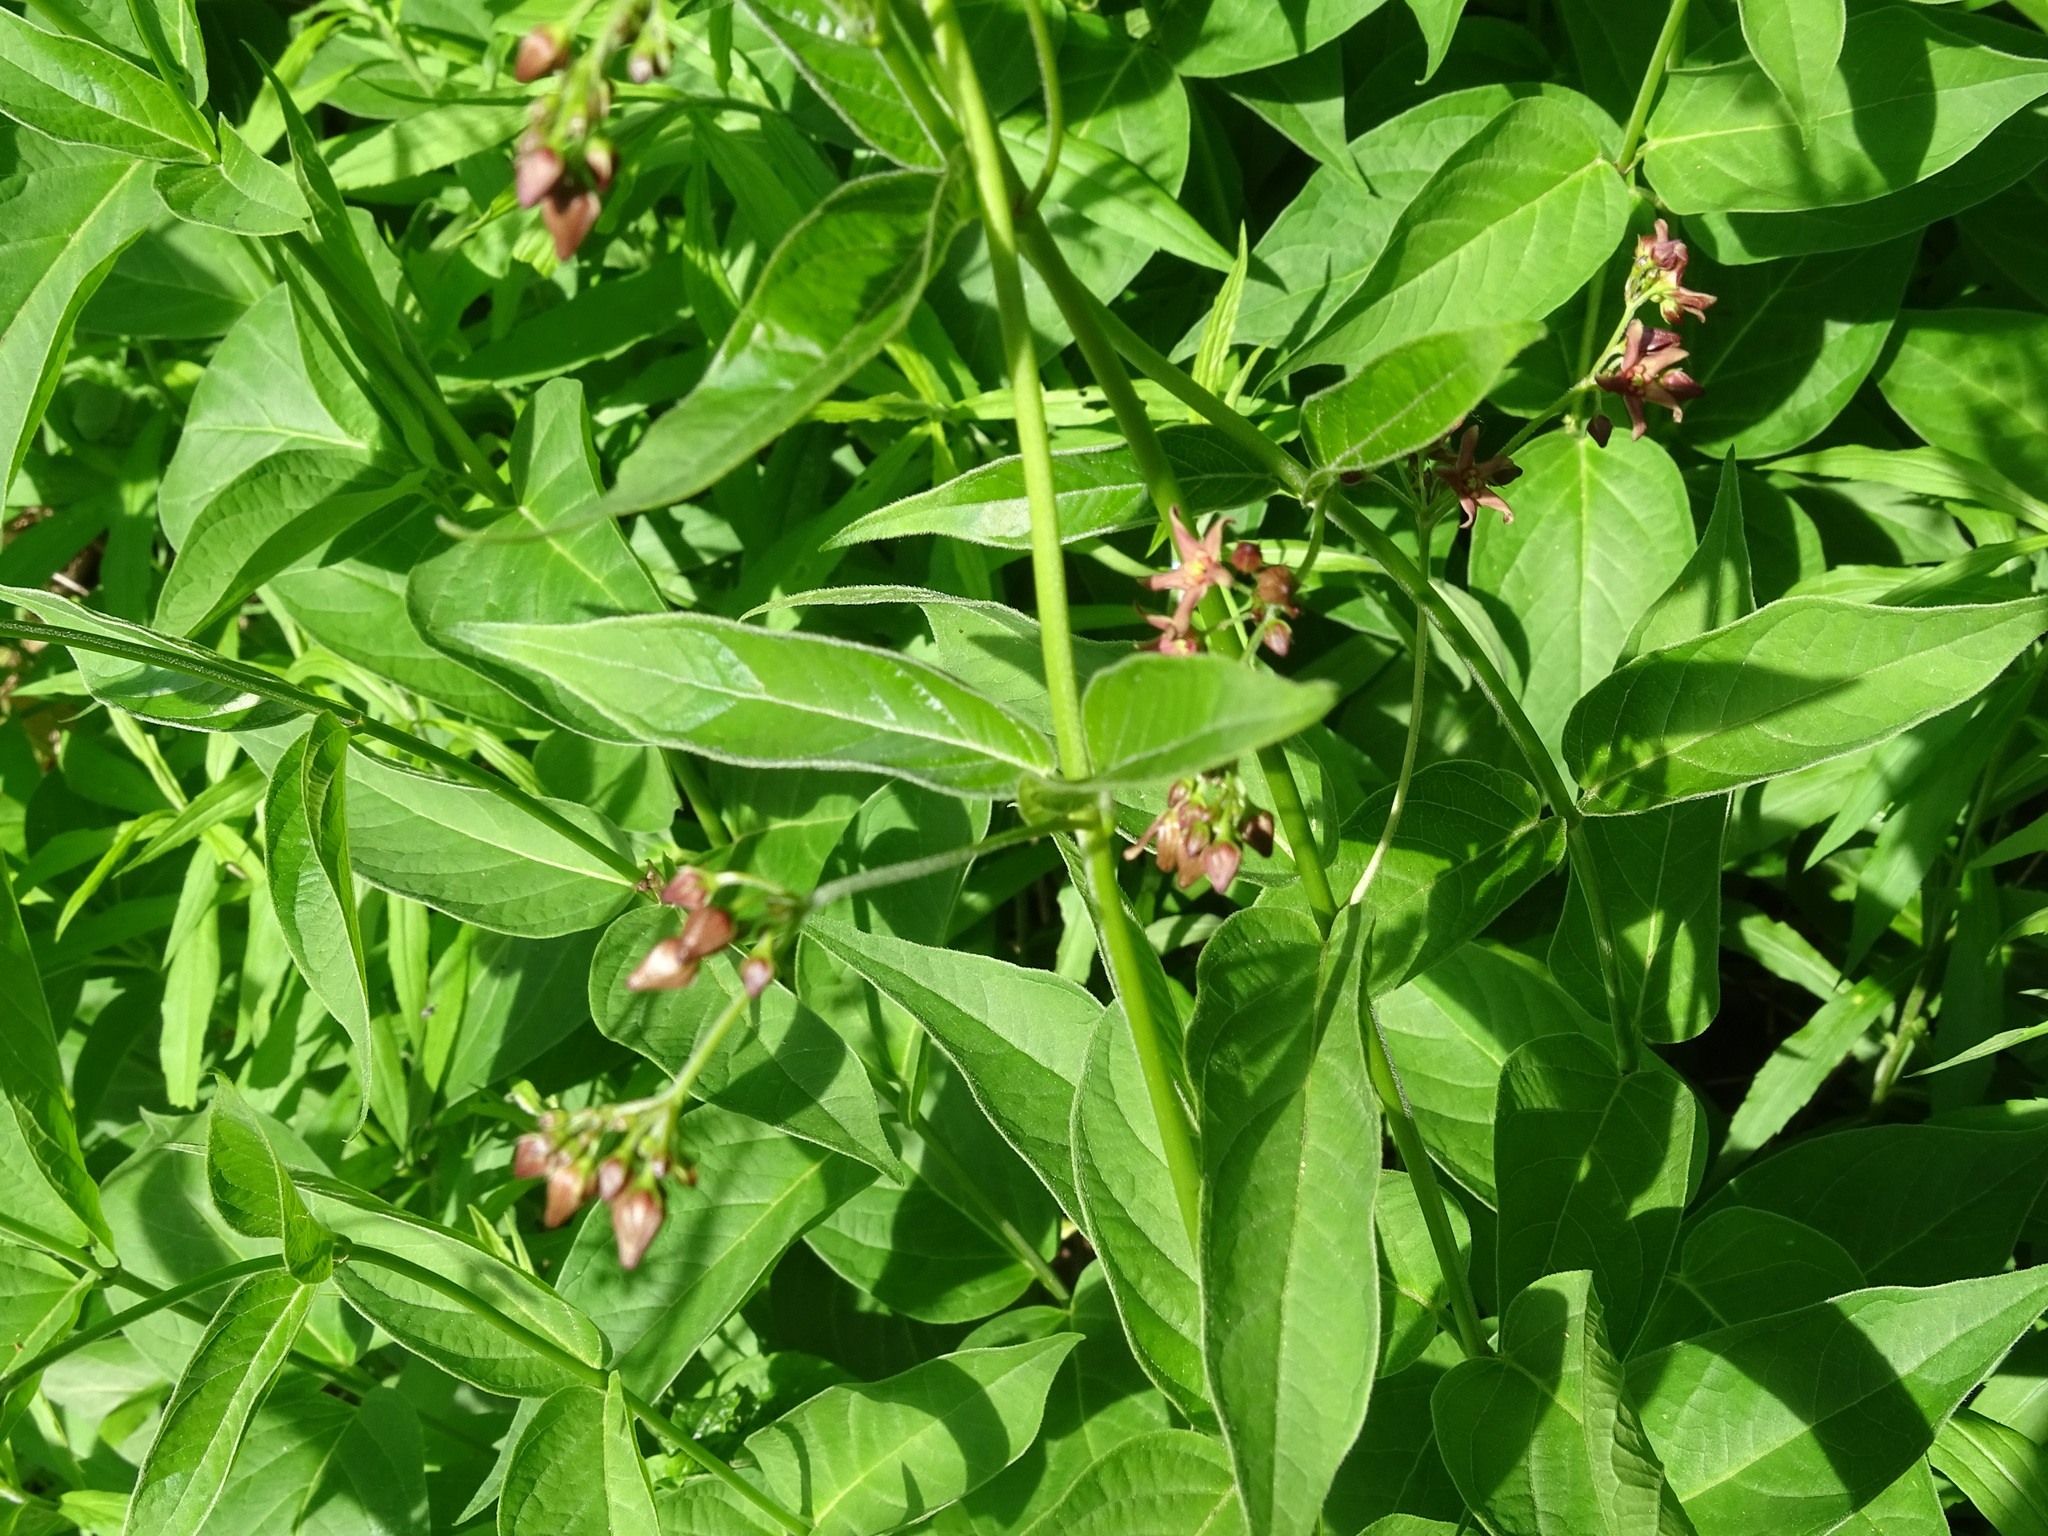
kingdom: Plantae
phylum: Tracheophyta
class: Magnoliopsida
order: Gentianales
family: Apocynaceae
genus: Vincetoxicum
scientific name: Vincetoxicum rossicum
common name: Dog-strangling vine
